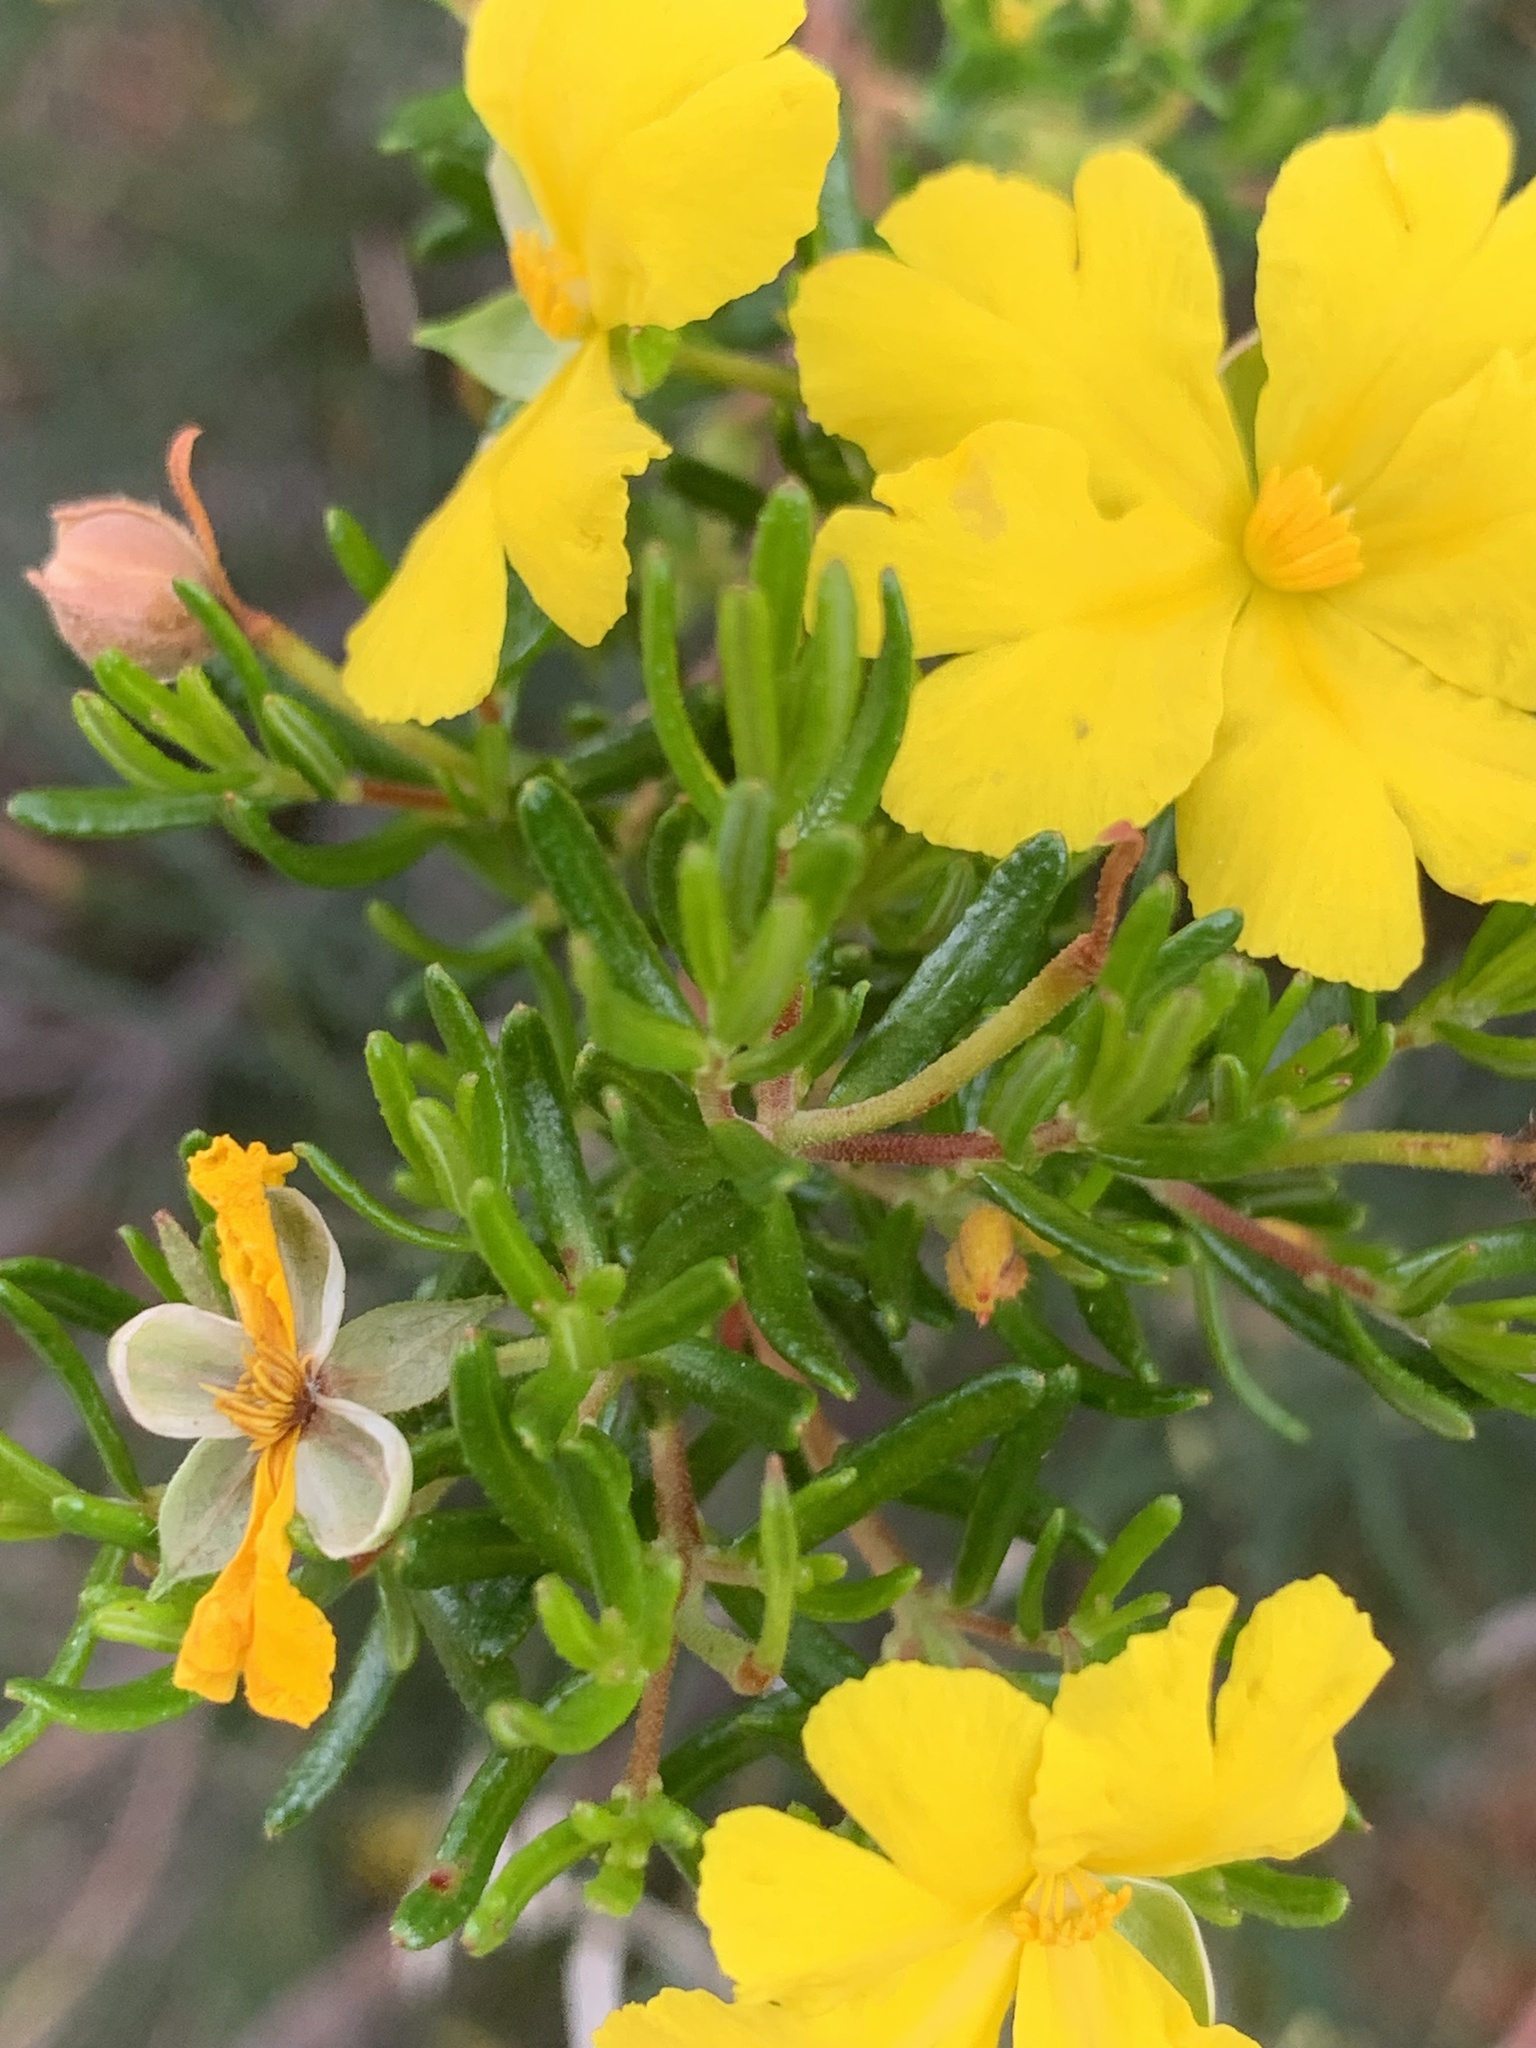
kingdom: Plantae
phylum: Tracheophyta
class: Magnoliopsida
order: Dilleniales
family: Dilleniaceae
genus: Hibbertia
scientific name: Hibbertia hypericoides
